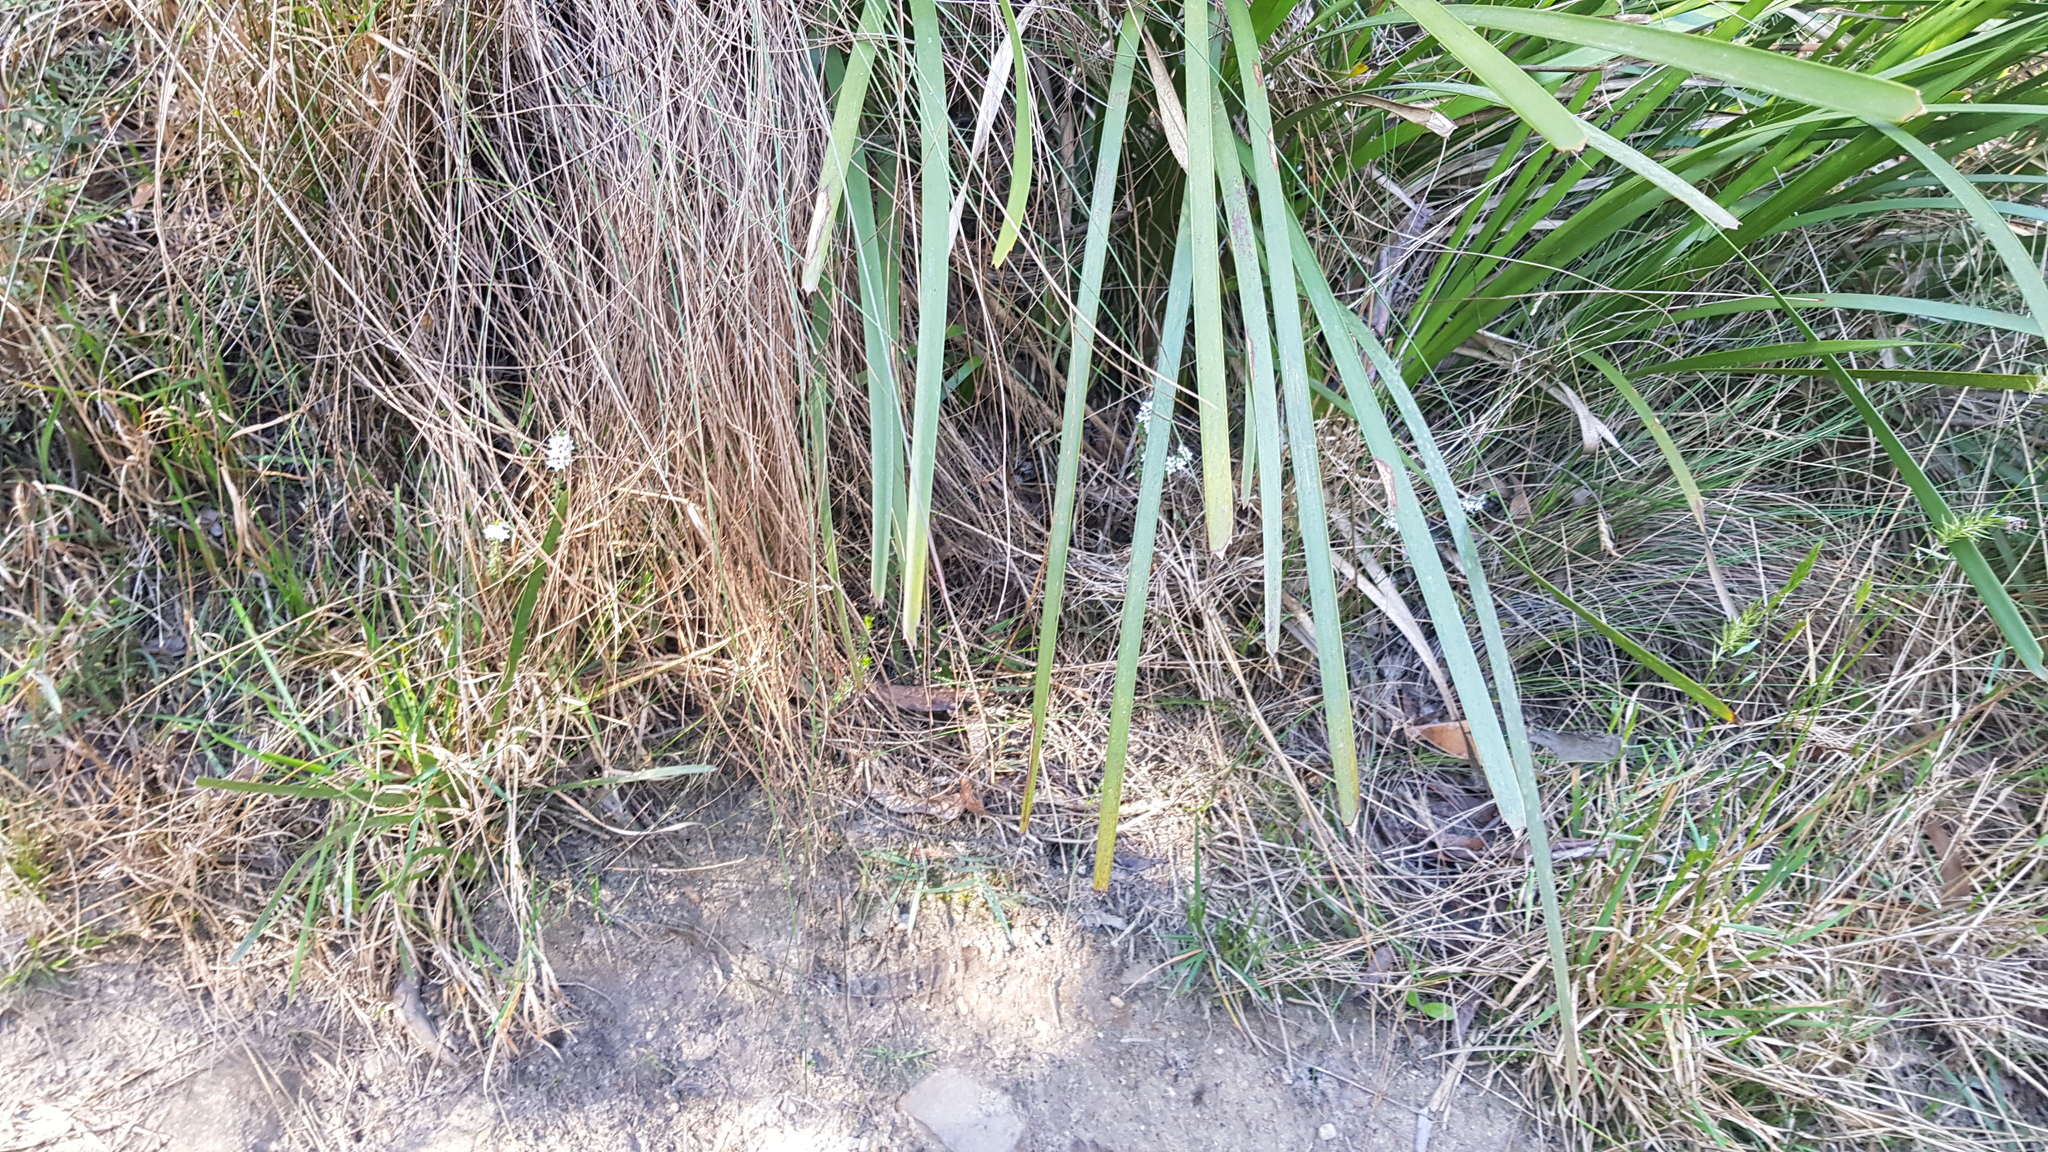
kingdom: Plantae
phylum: Tracheophyta
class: Magnoliopsida
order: Ericales
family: Ericaceae
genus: Epacris
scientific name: Epacris gunnii
